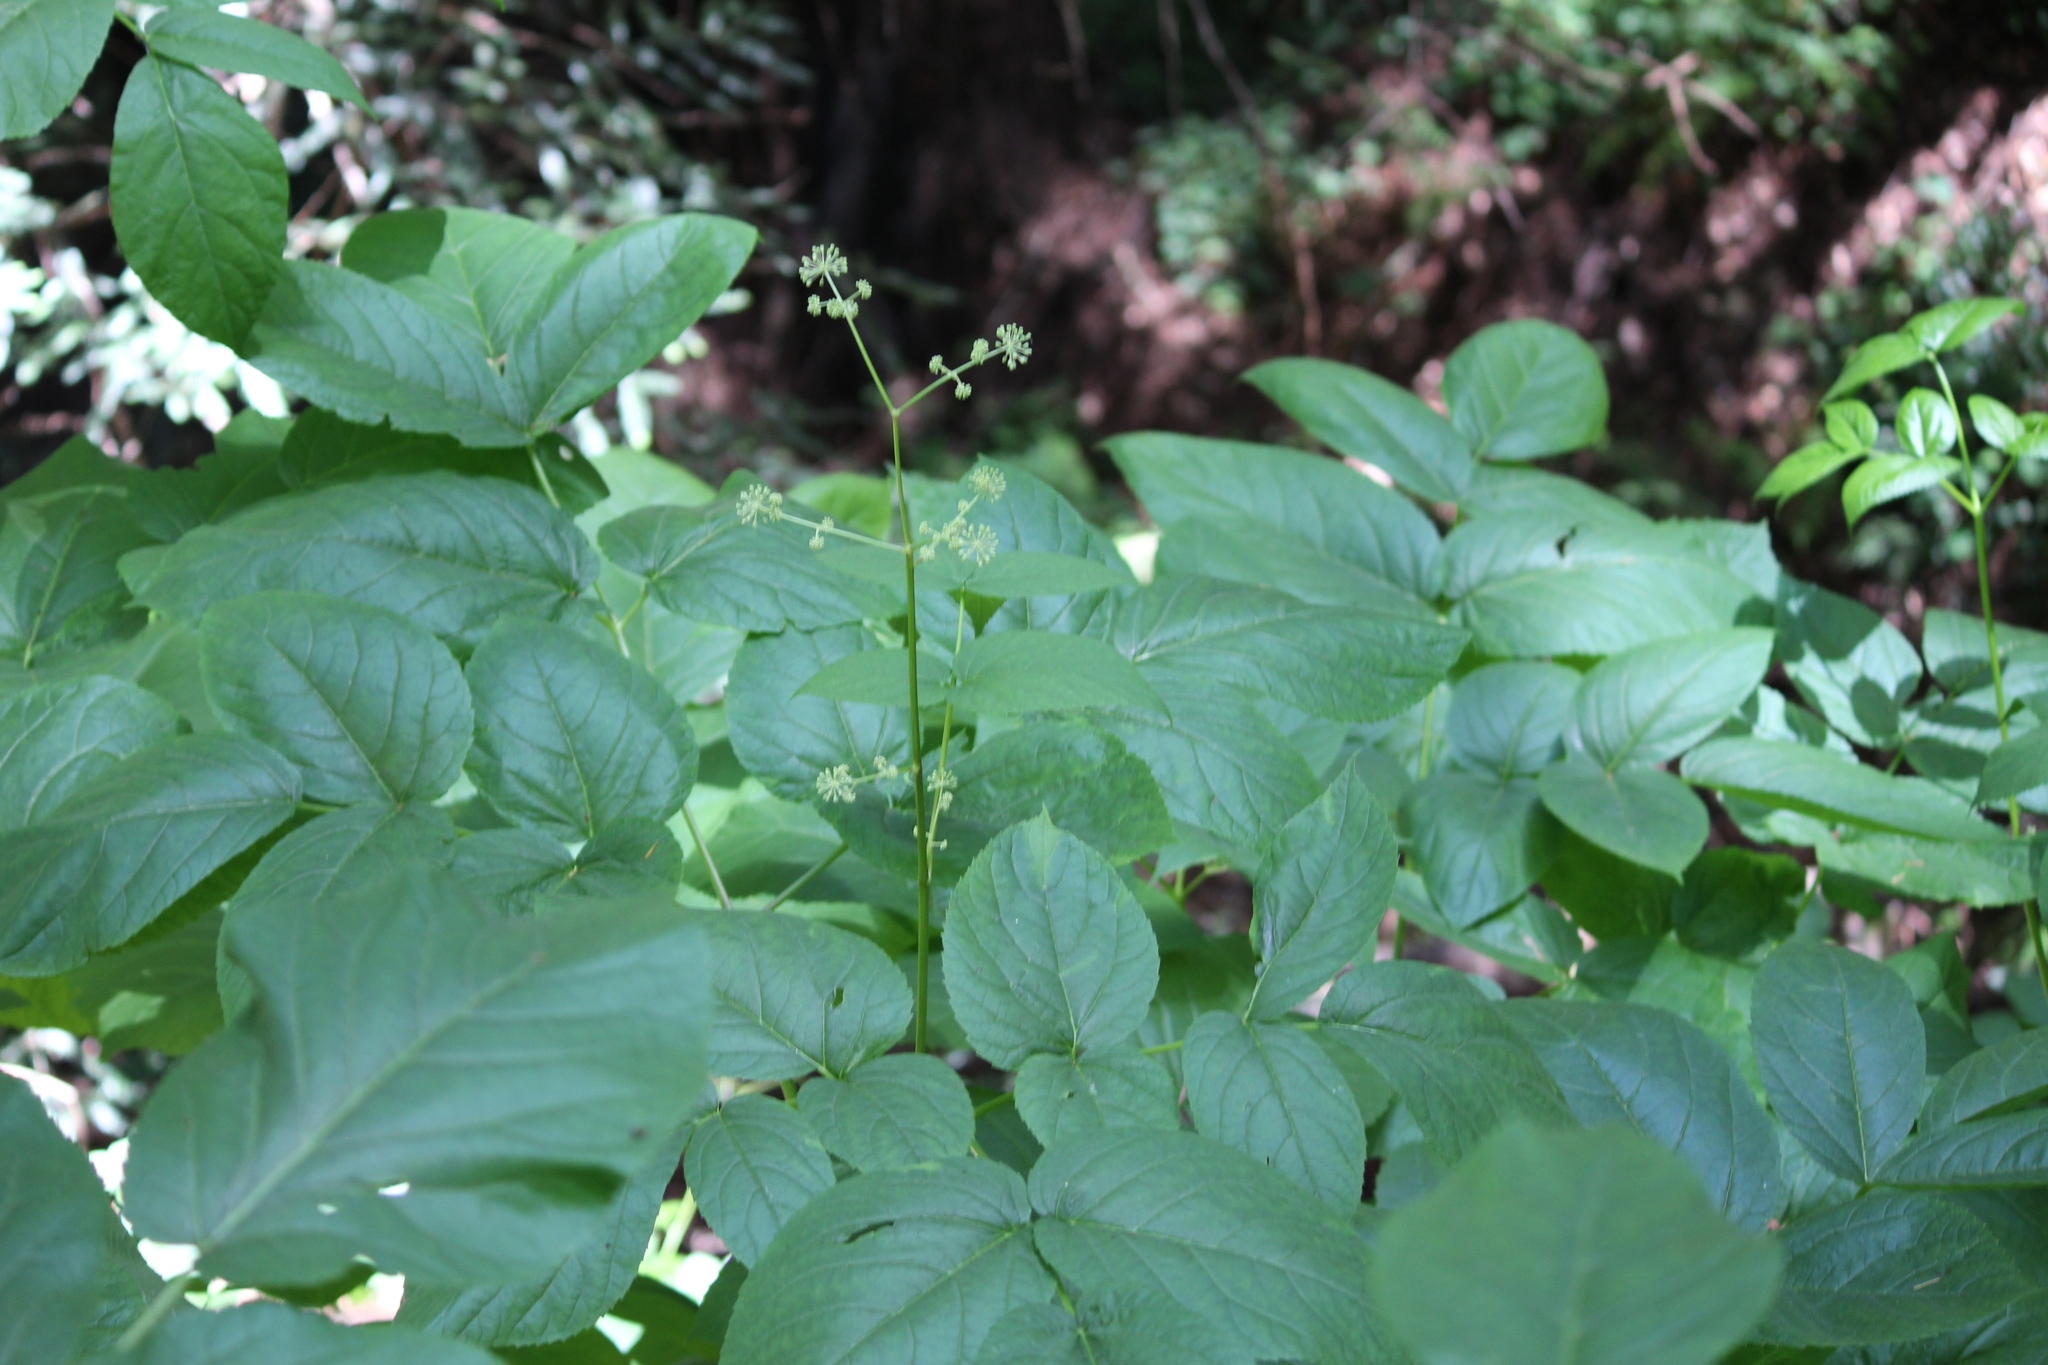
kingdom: Plantae
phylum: Tracheophyta
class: Magnoliopsida
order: Apiales
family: Araliaceae
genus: Aralia
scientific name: Aralia californica
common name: California-ginseng
